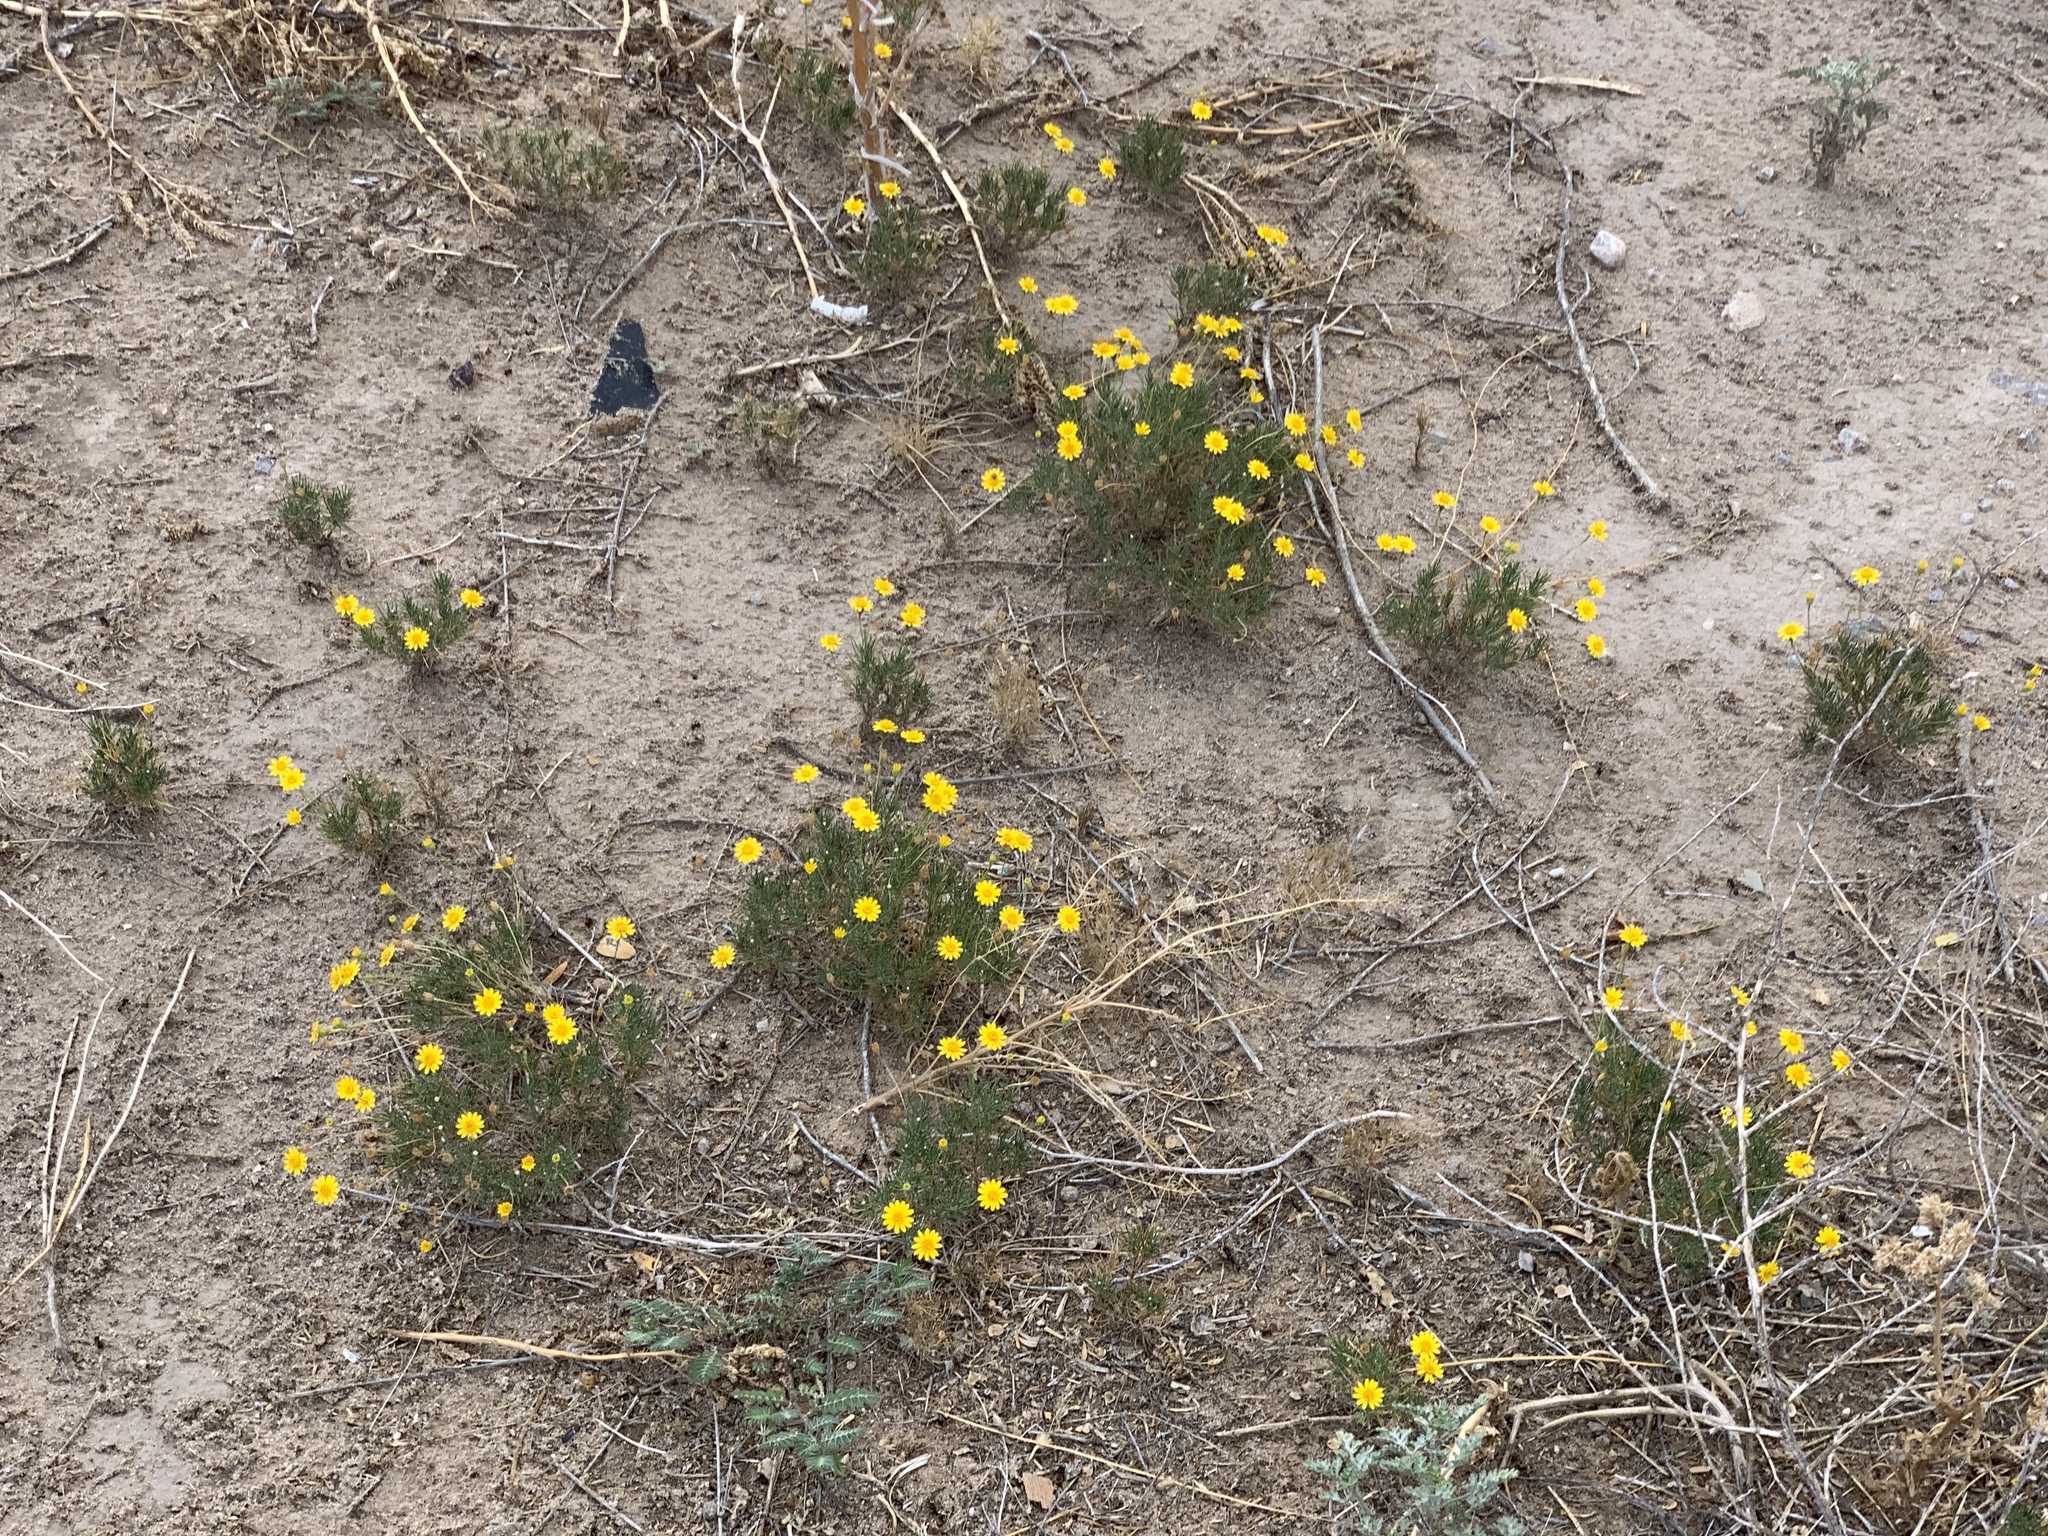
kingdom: Plantae
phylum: Tracheophyta
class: Magnoliopsida
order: Asterales
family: Asteraceae
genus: Thymophylla
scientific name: Thymophylla pentachaeta
